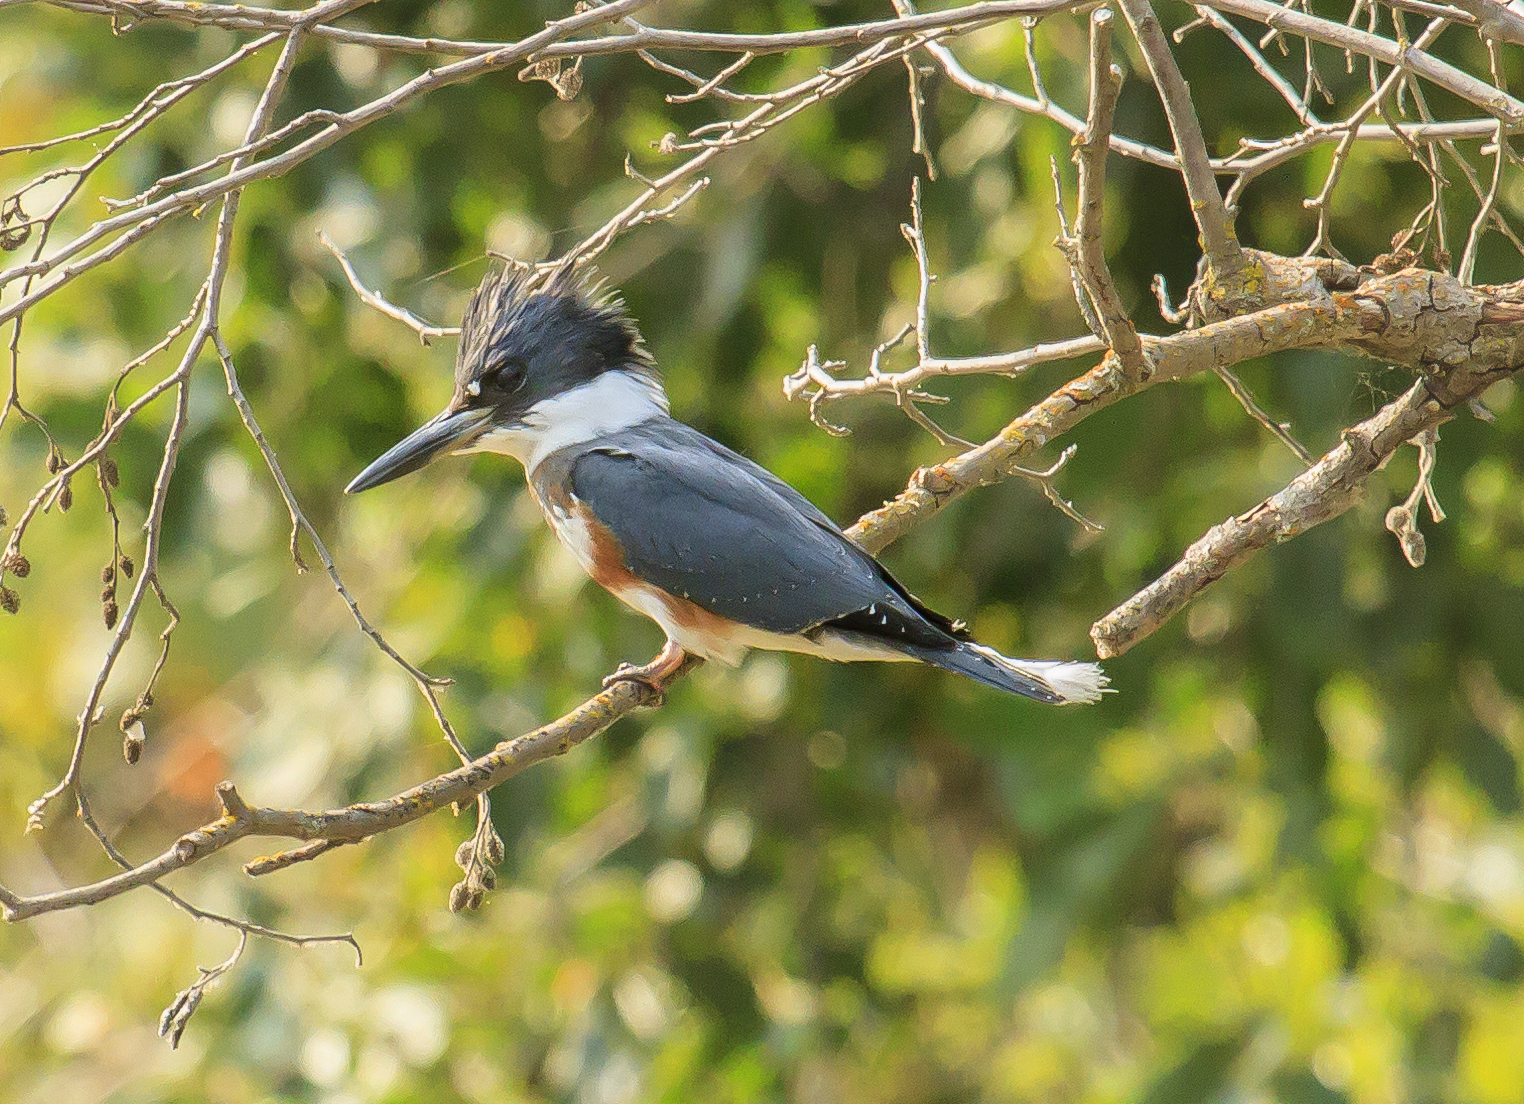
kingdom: Animalia
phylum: Chordata
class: Aves
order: Coraciiformes
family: Alcedinidae
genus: Megaceryle
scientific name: Megaceryle alcyon
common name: Belted kingfisher
